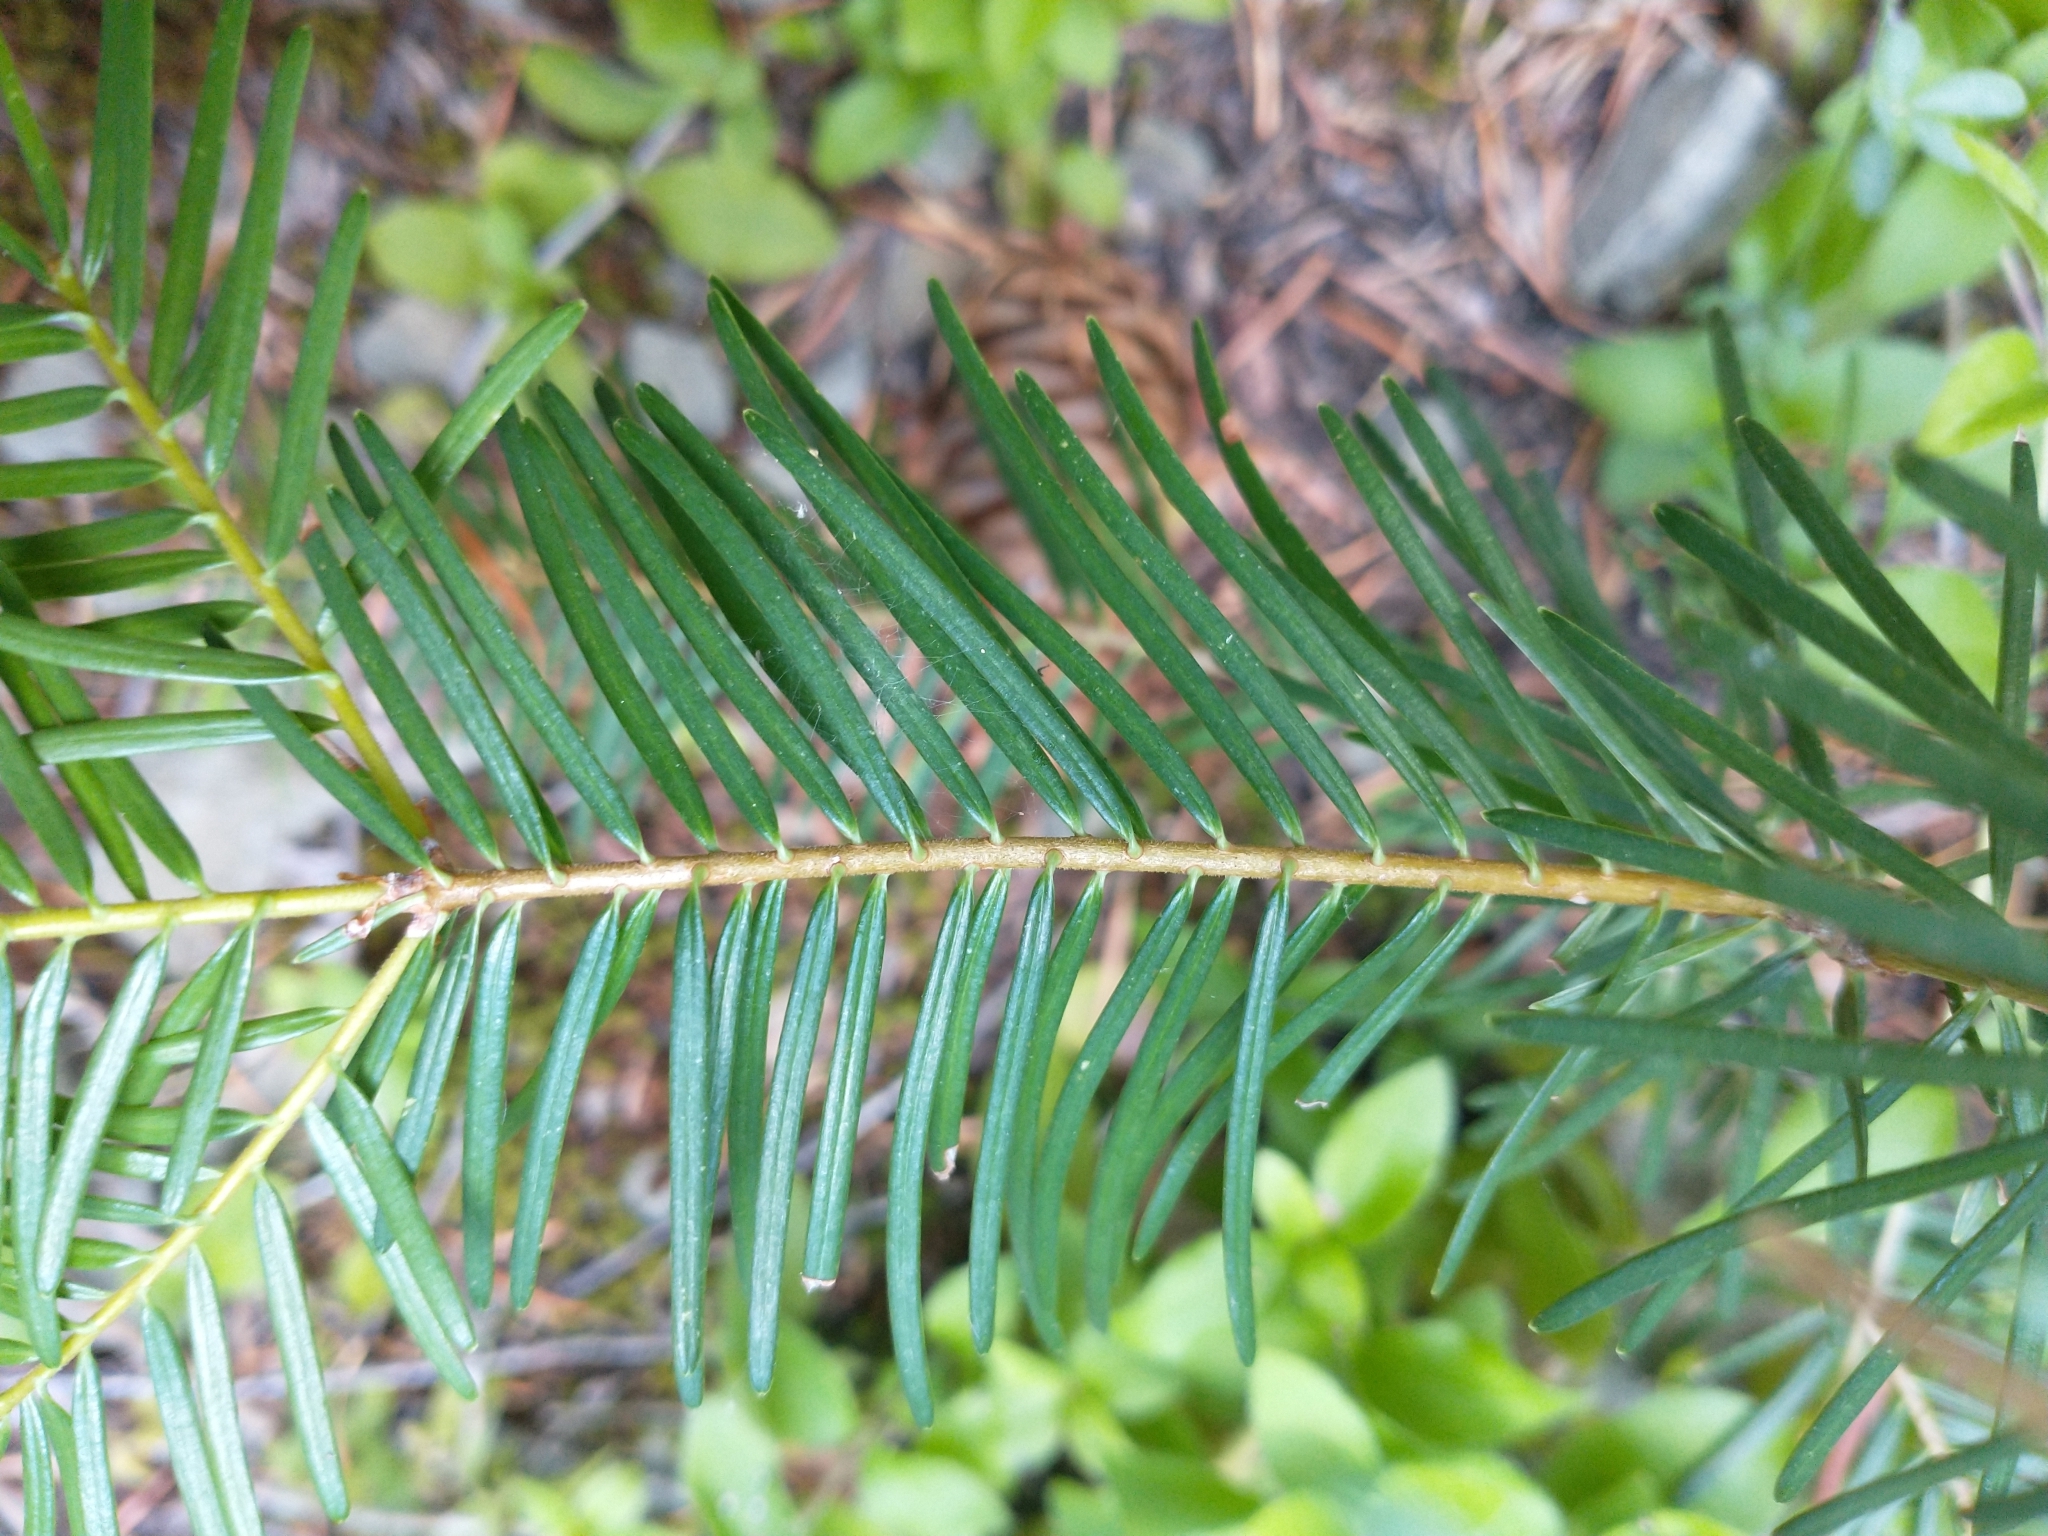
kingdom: Plantae
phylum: Tracheophyta
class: Pinopsida
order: Pinales
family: Pinaceae
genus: Abies
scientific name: Abies concolor
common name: Colorado fir
